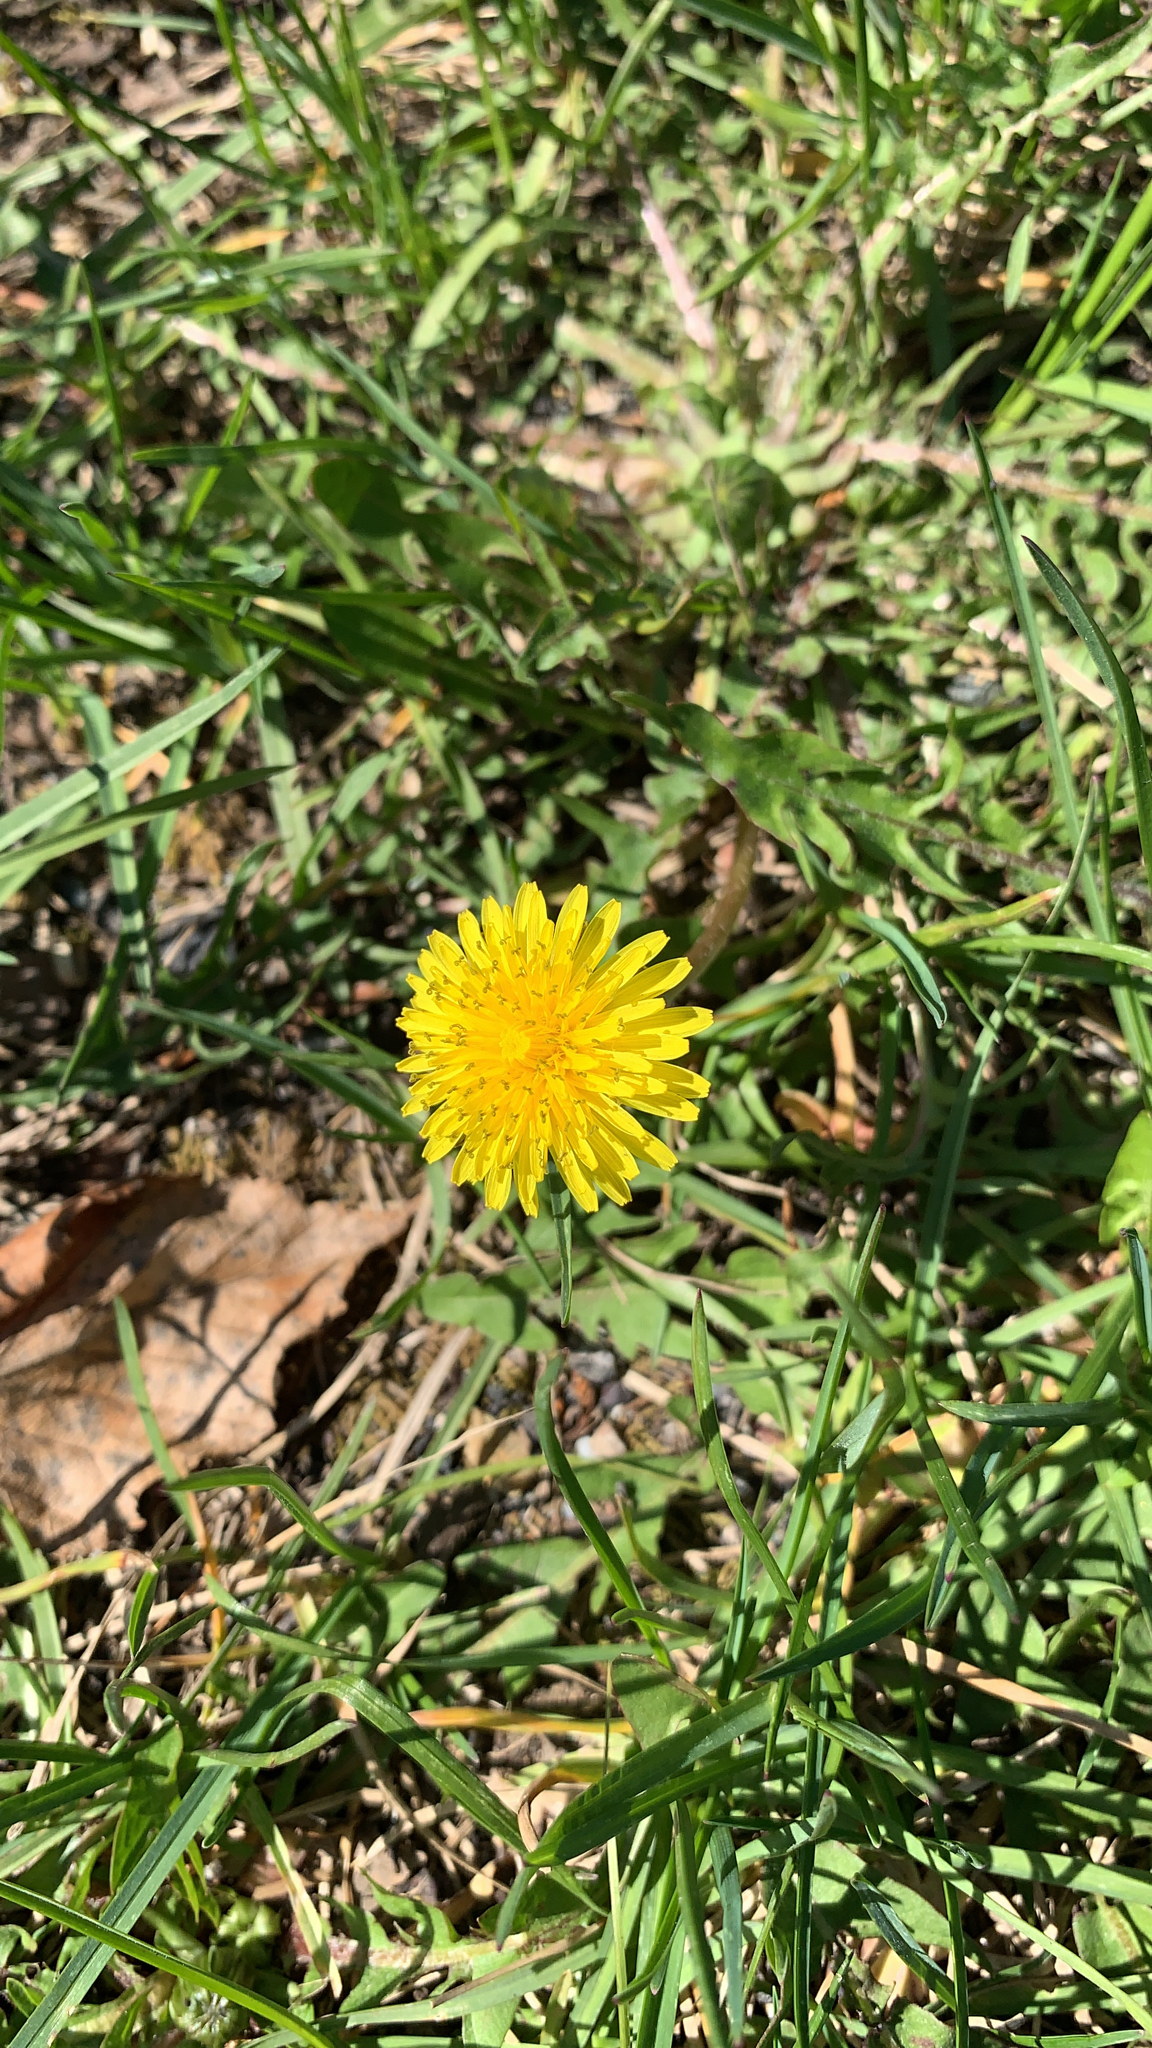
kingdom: Plantae
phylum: Tracheophyta
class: Magnoliopsida
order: Asterales
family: Asteraceae
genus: Taraxacum
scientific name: Taraxacum officinale
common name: Common dandelion
